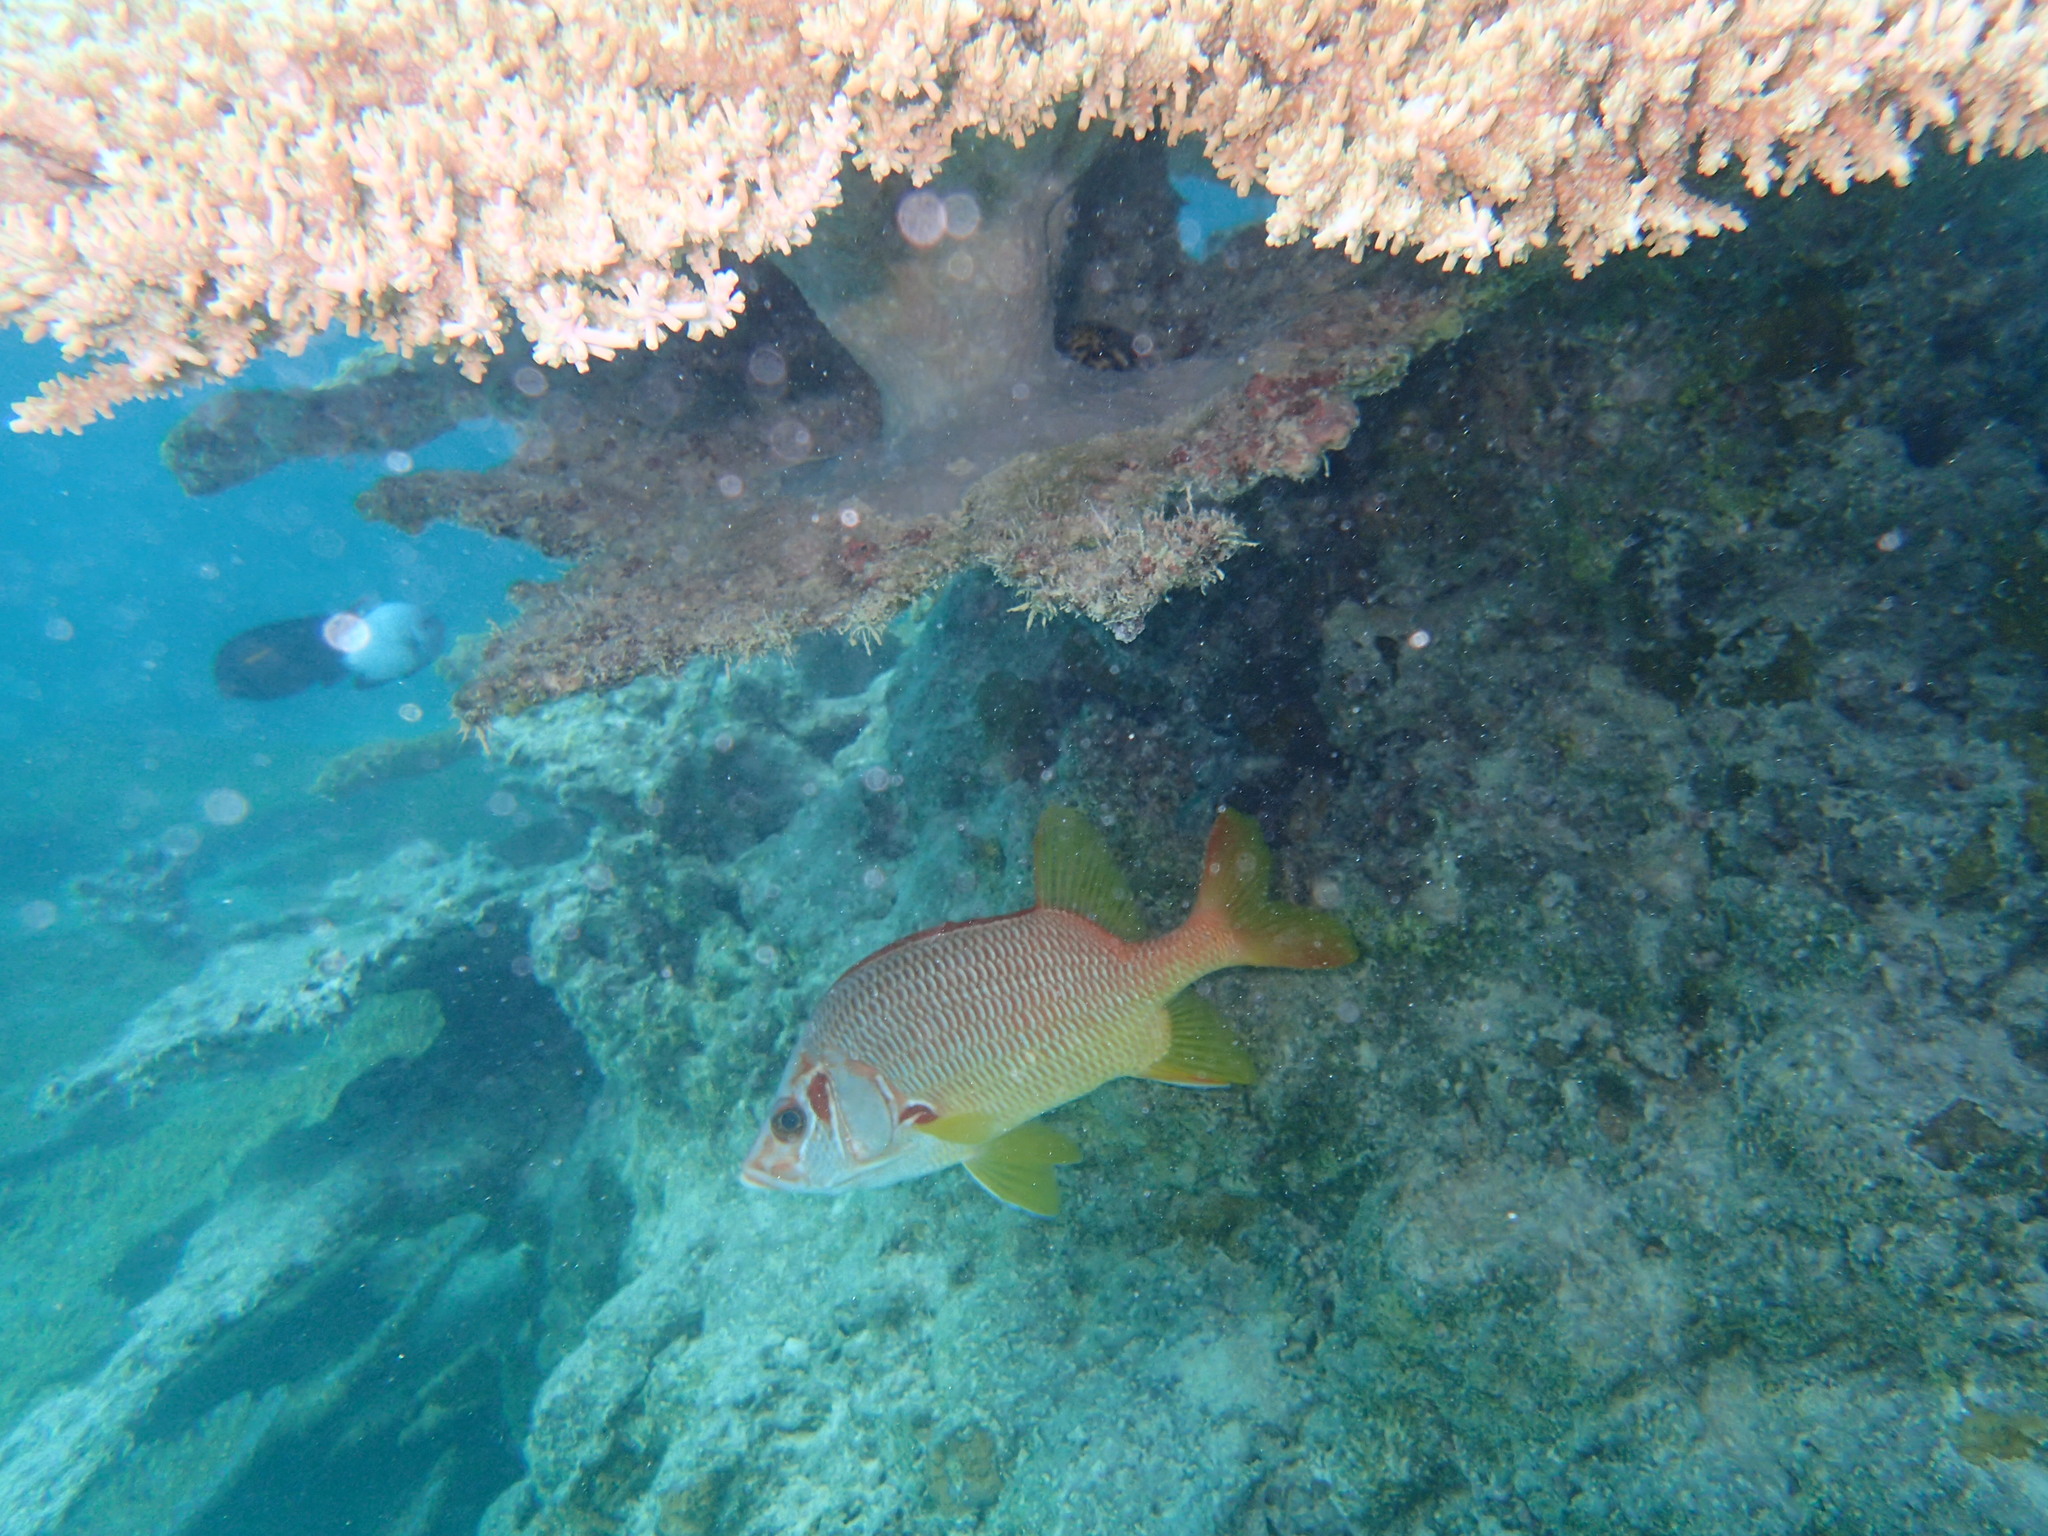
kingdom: Animalia
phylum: Chordata
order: Beryciformes
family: Holocentridae
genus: Sargocentron
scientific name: Sargocentron spiniferum
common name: Giant squirrelfish
